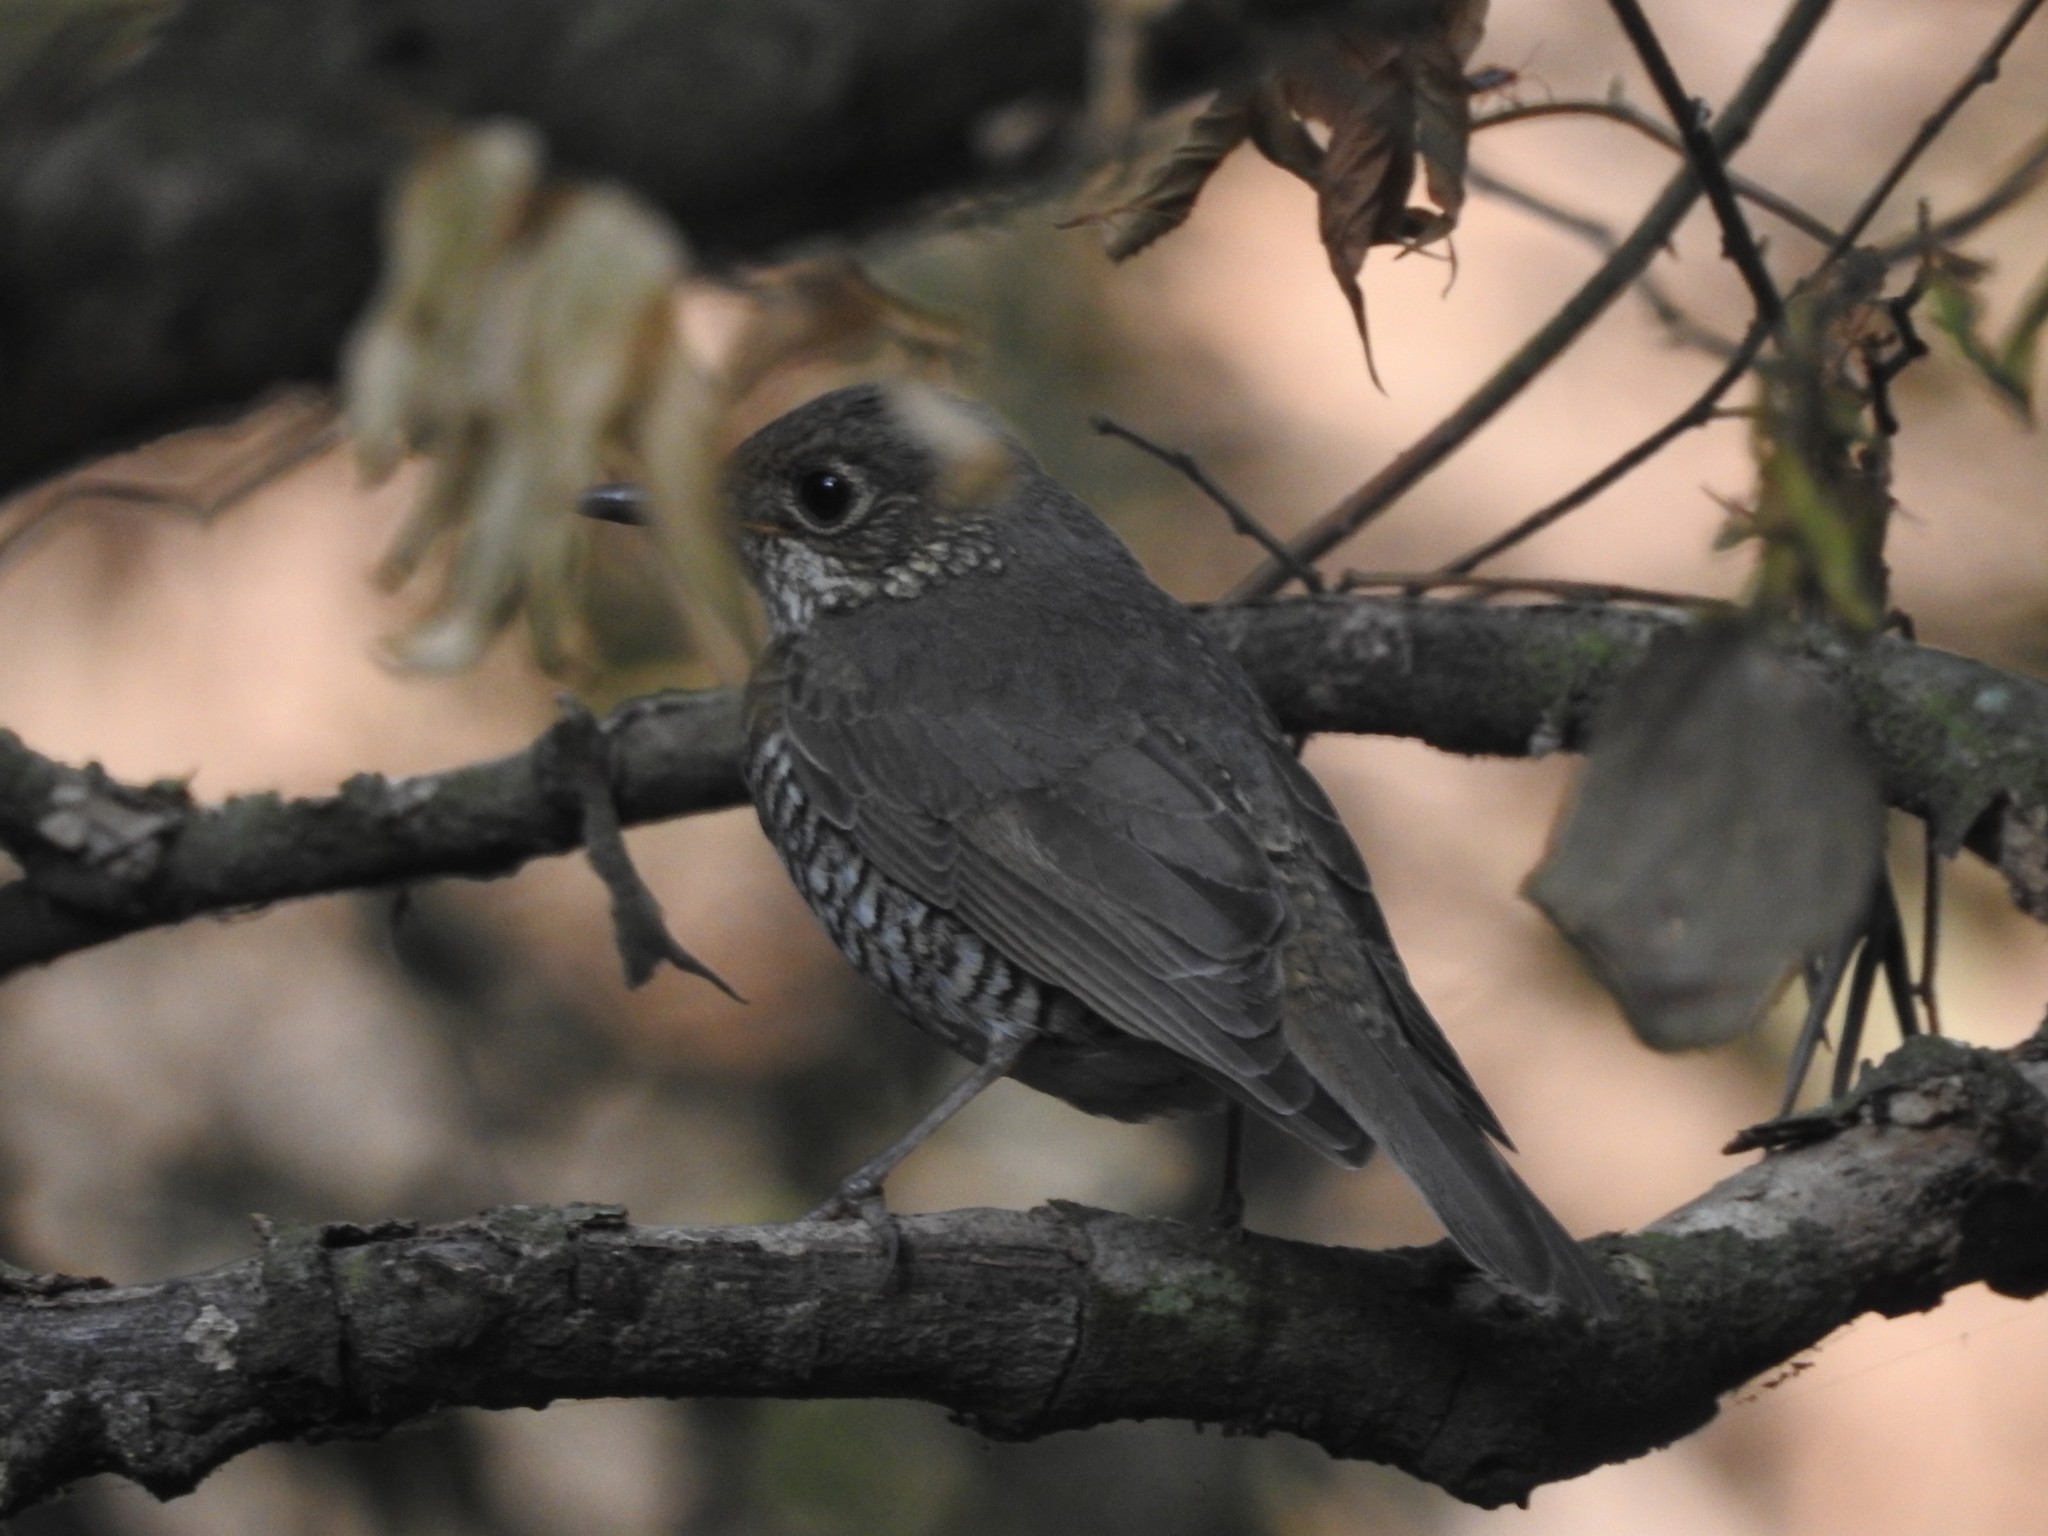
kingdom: Animalia
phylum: Chordata
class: Aves
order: Passeriformes
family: Muscicapidae
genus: Monticola
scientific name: Monticola cinclorhynchus
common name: Blue-capped rock thrush
